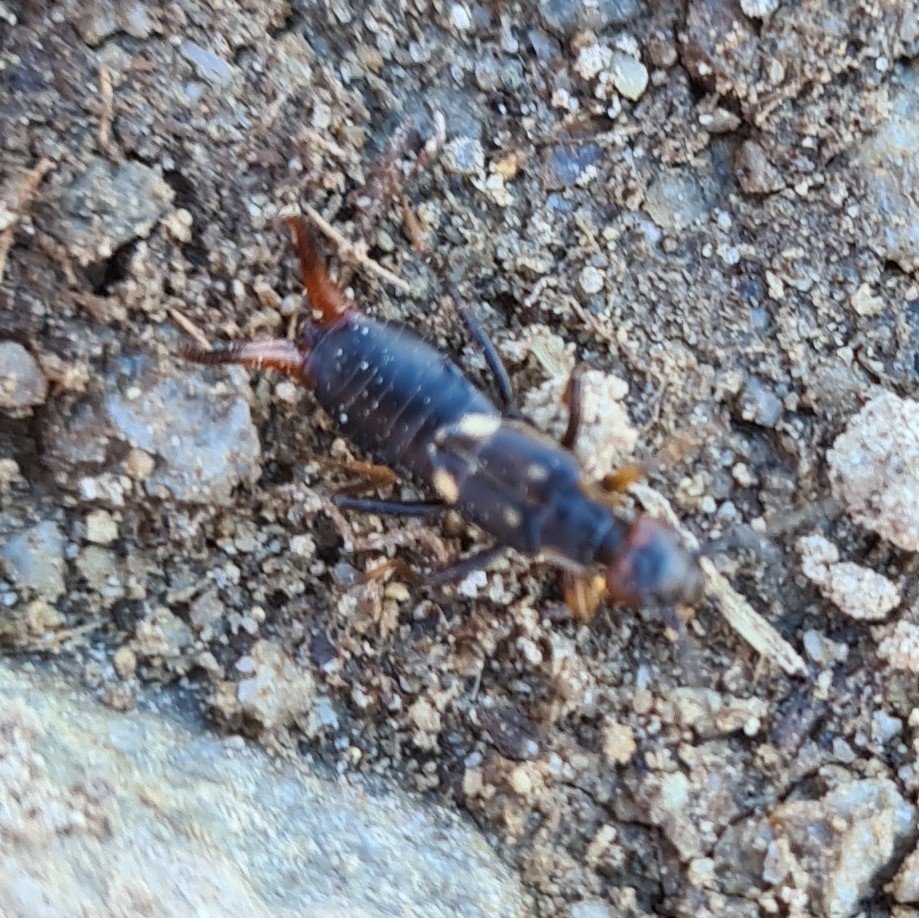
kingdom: Animalia
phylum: Arthropoda
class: Insecta
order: Dermaptera
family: Forficulidae
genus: Anechura
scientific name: Anechura bipunctata
